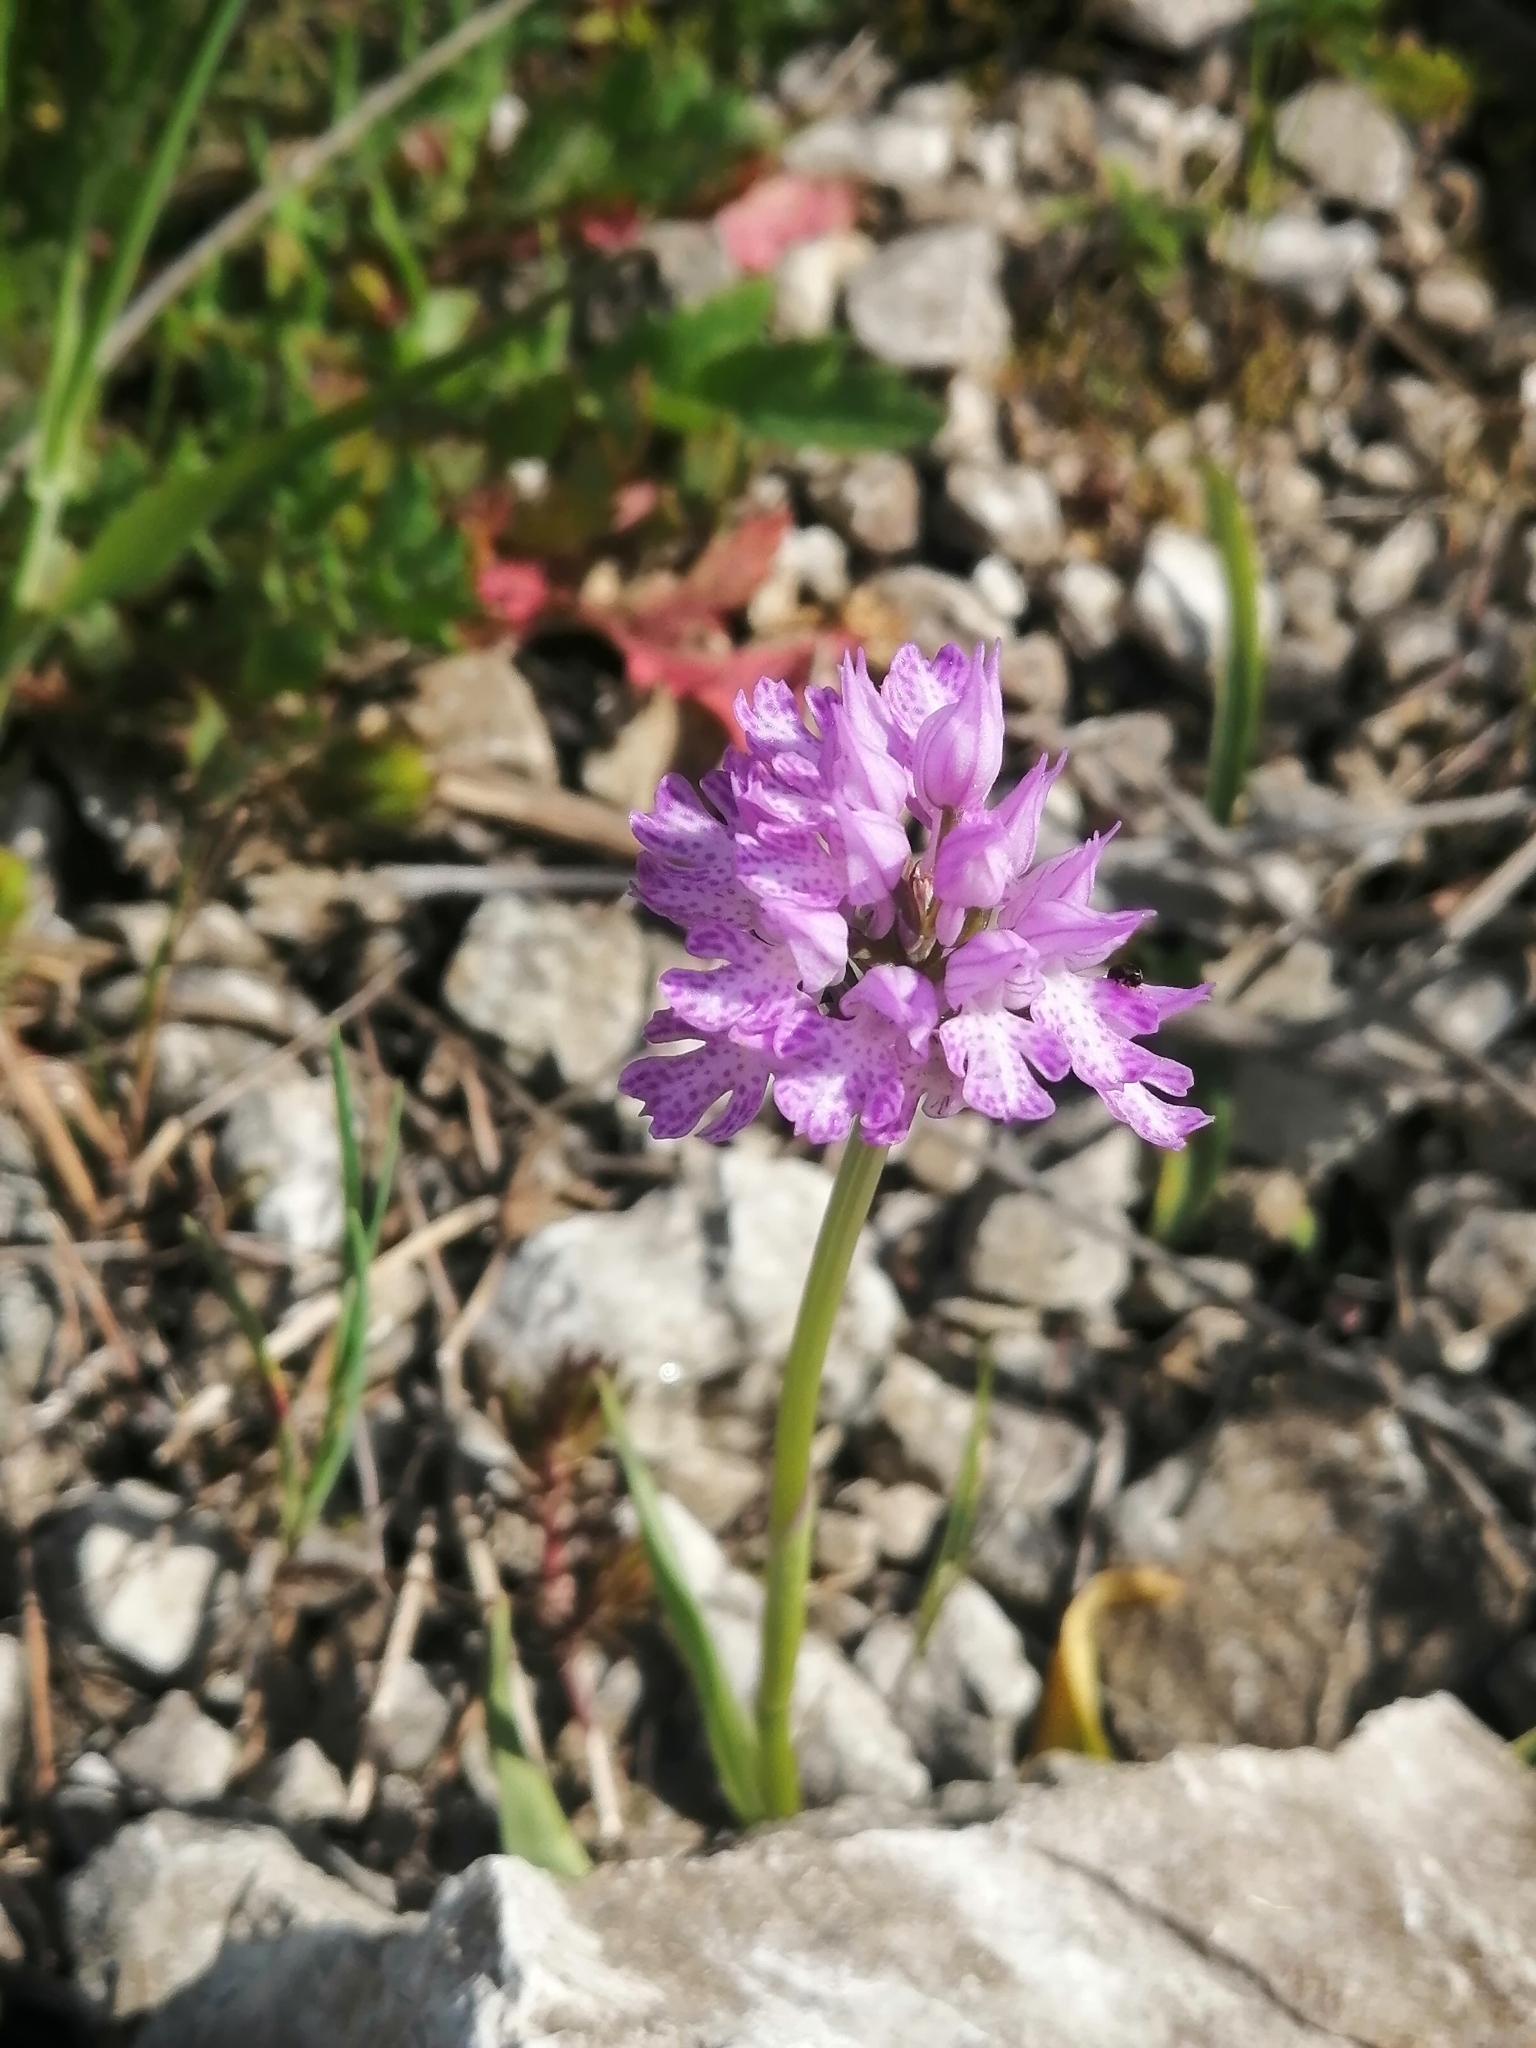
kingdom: Plantae
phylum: Tracheophyta
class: Liliopsida
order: Asparagales
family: Orchidaceae
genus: Neotinea
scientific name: Neotinea tridentata
